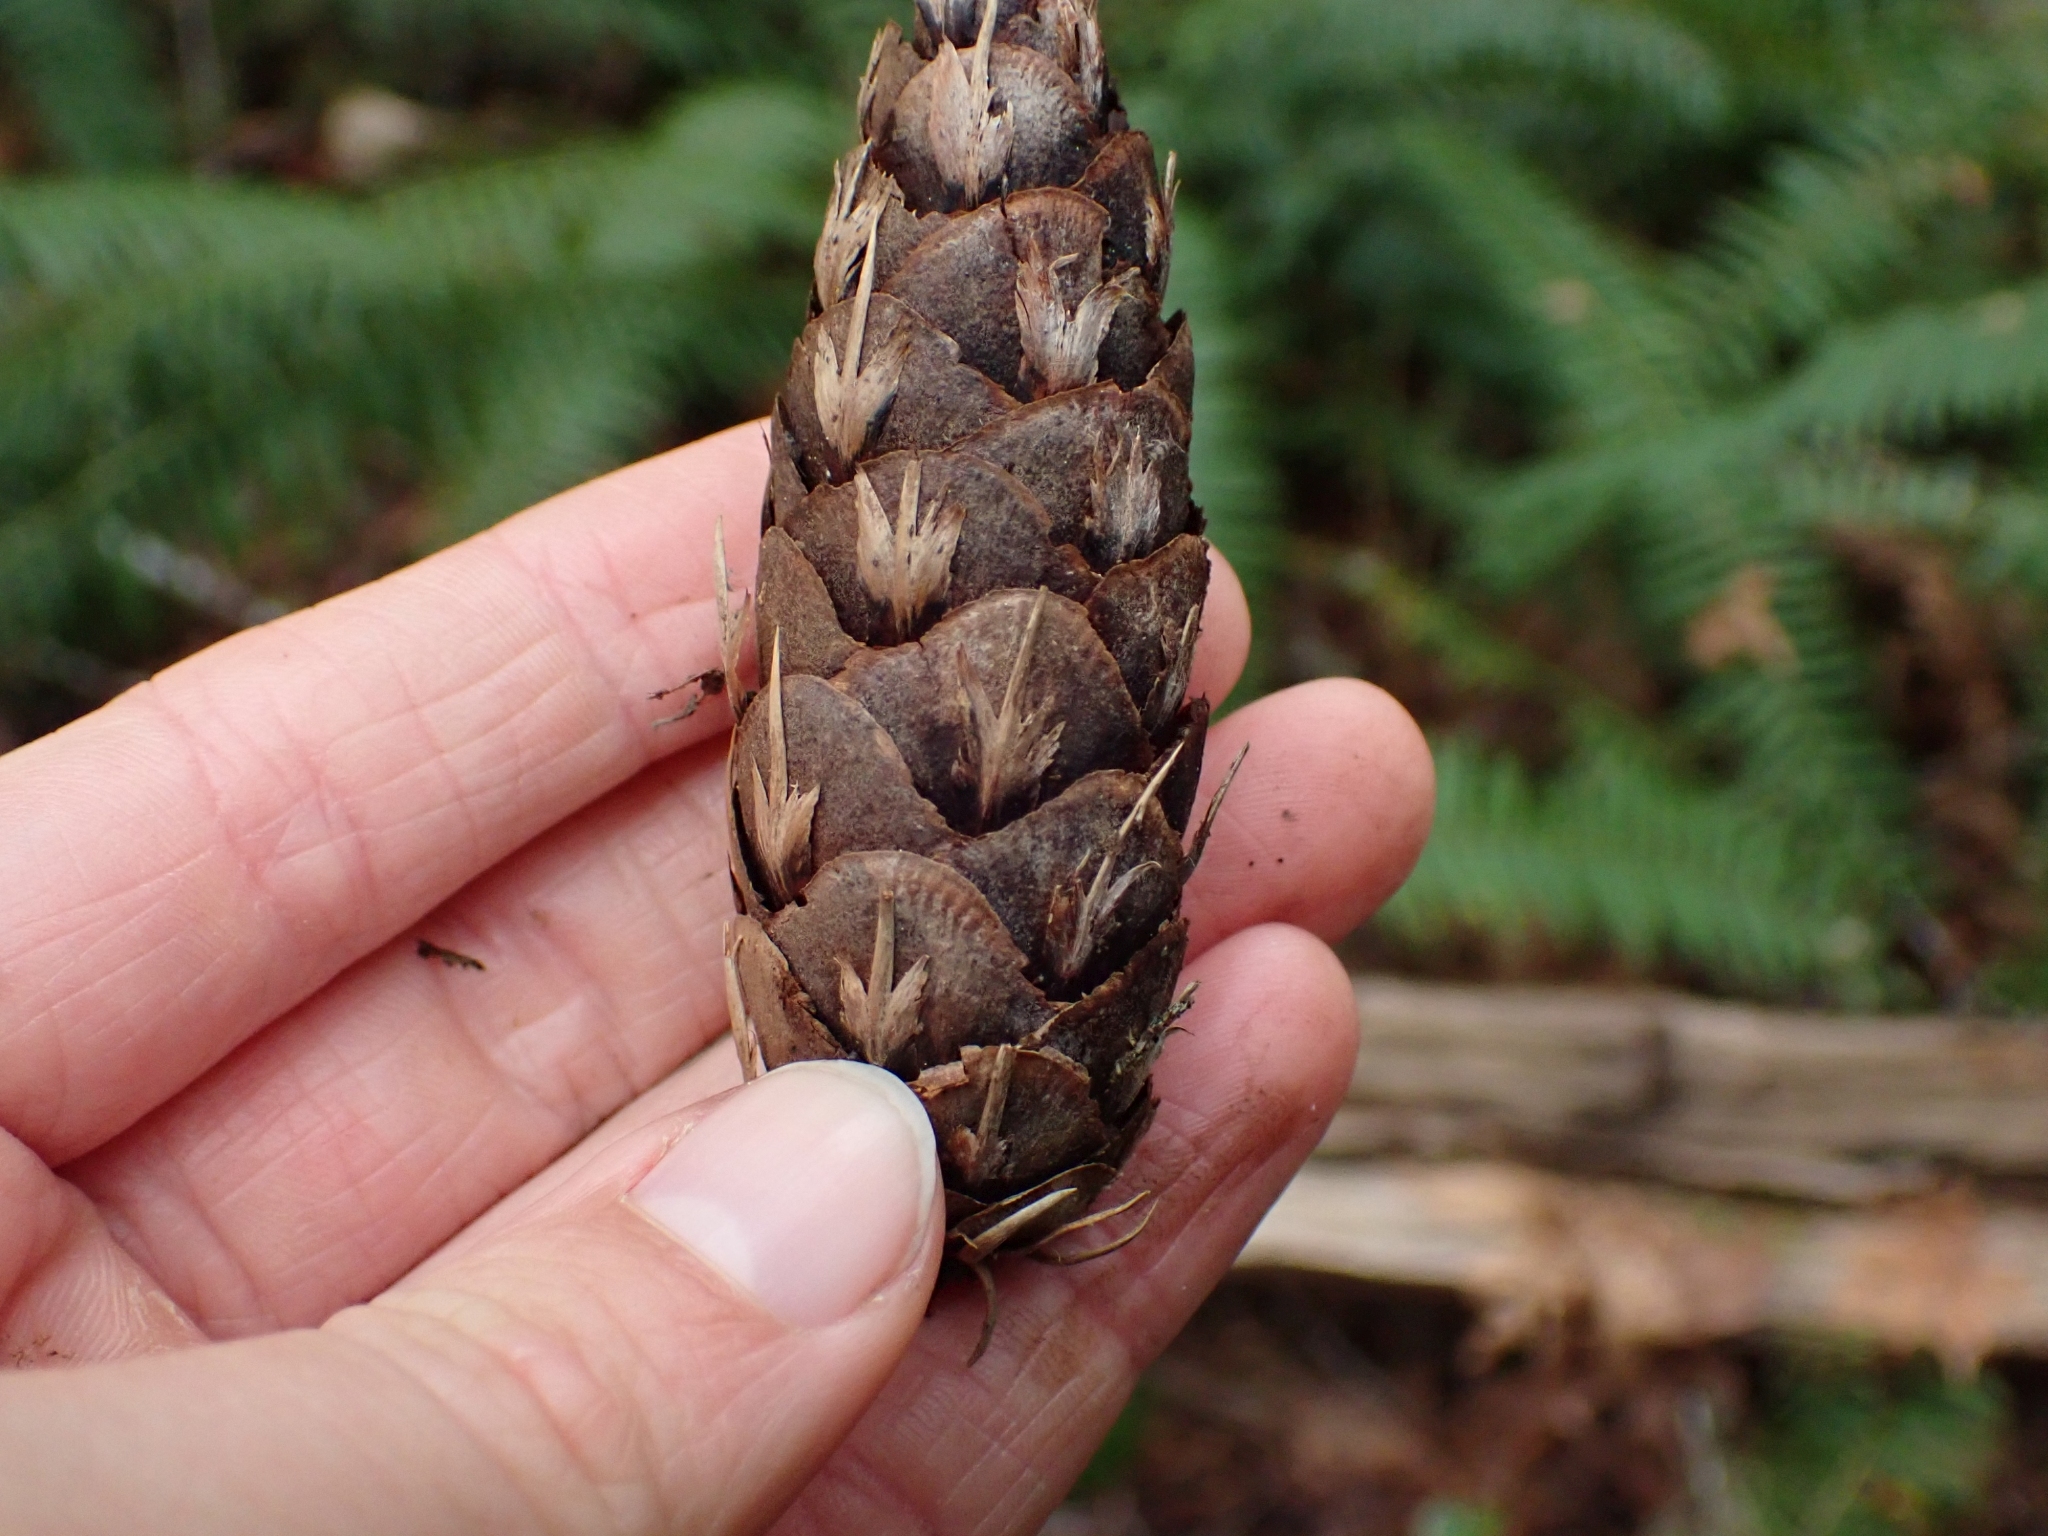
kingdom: Plantae
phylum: Tracheophyta
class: Pinopsida
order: Pinales
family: Pinaceae
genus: Pseudotsuga
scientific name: Pseudotsuga menziesii
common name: Douglas fir
